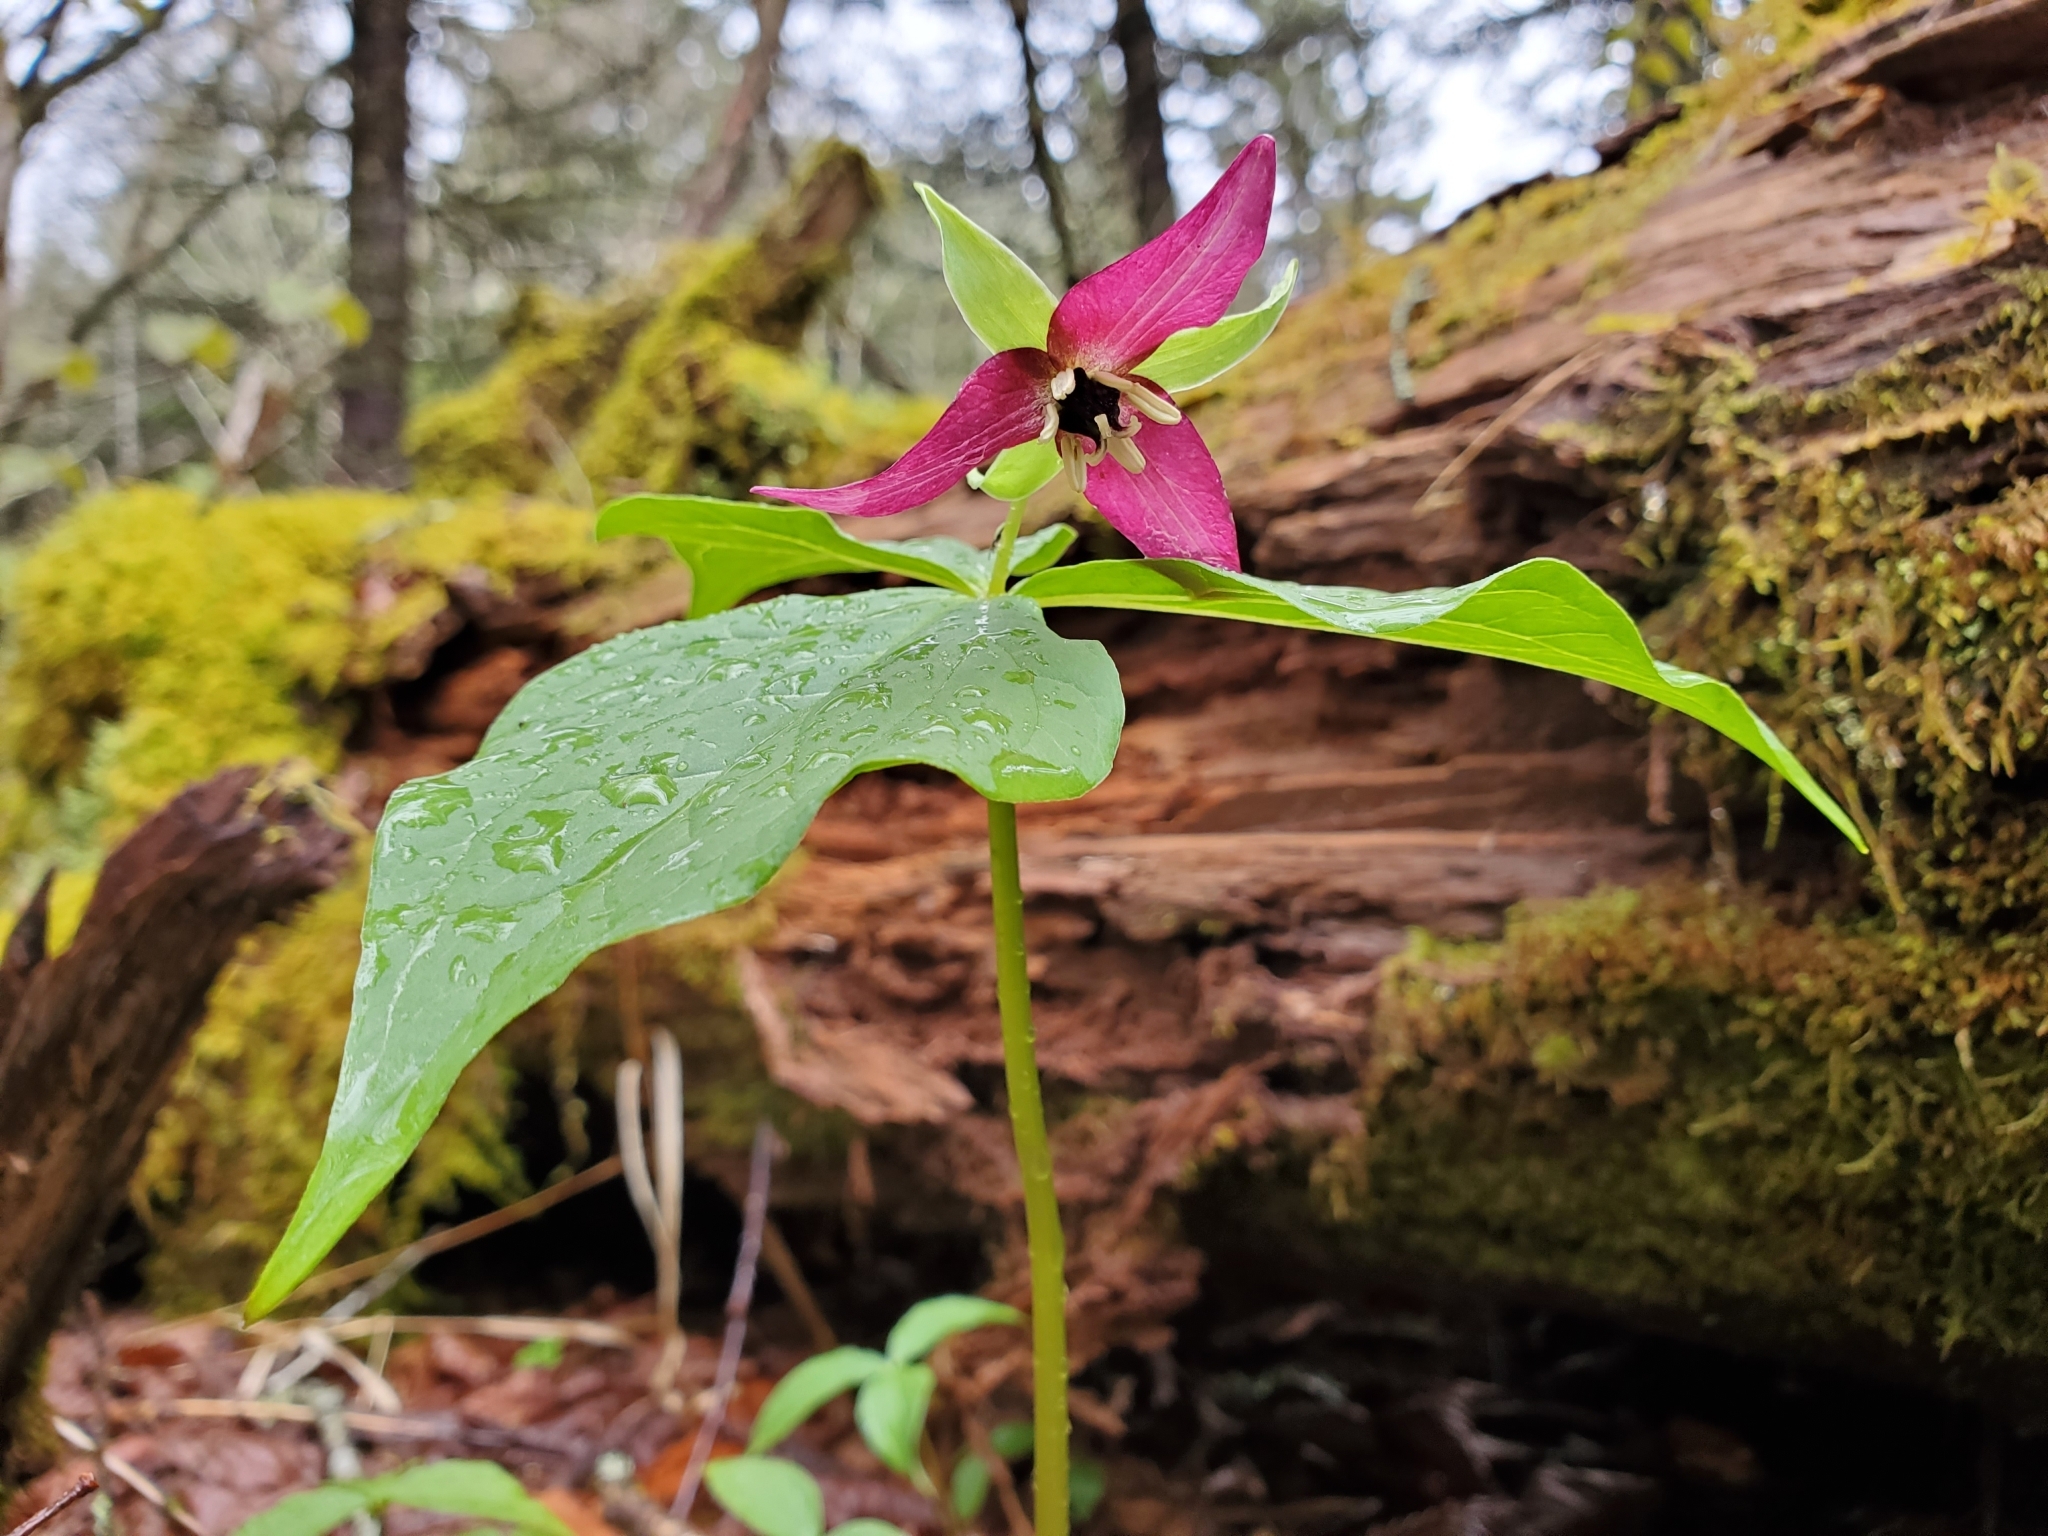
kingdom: Plantae
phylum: Tracheophyta
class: Liliopsida
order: Liliales
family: Melanthiaceae
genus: Trillium
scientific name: Trillium erectum
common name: Purple trillium
